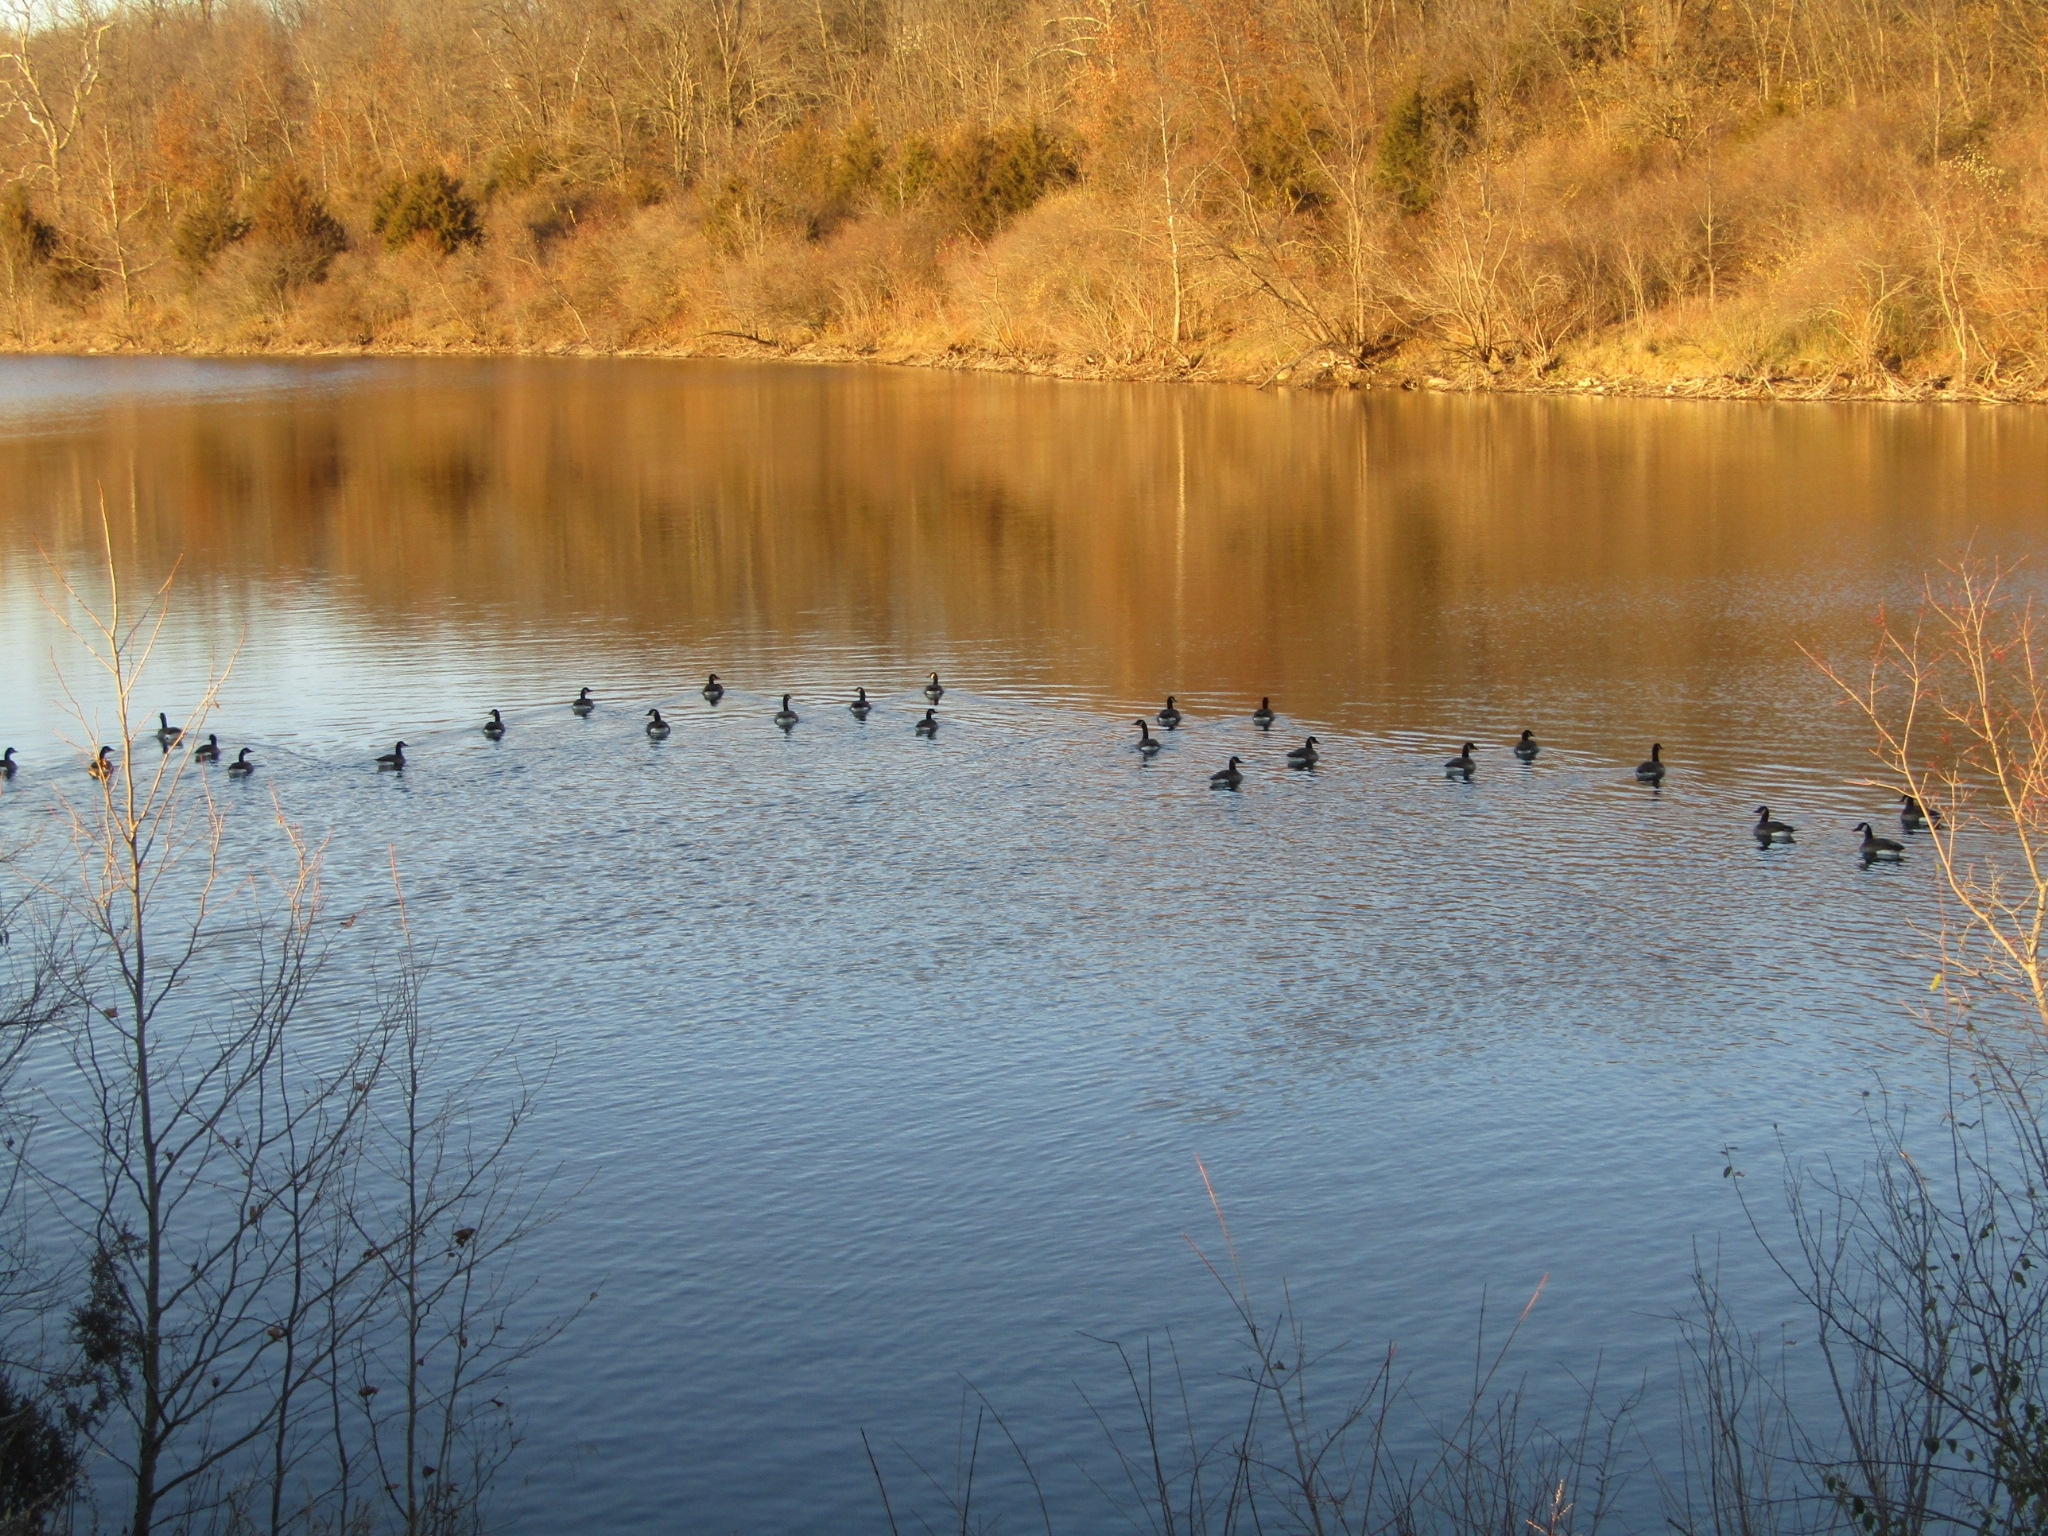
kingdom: Animalia
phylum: Chordata
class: Aves
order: Anseriformes
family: Anatidae
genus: Branta
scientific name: Branta canadensis
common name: Canada goose
